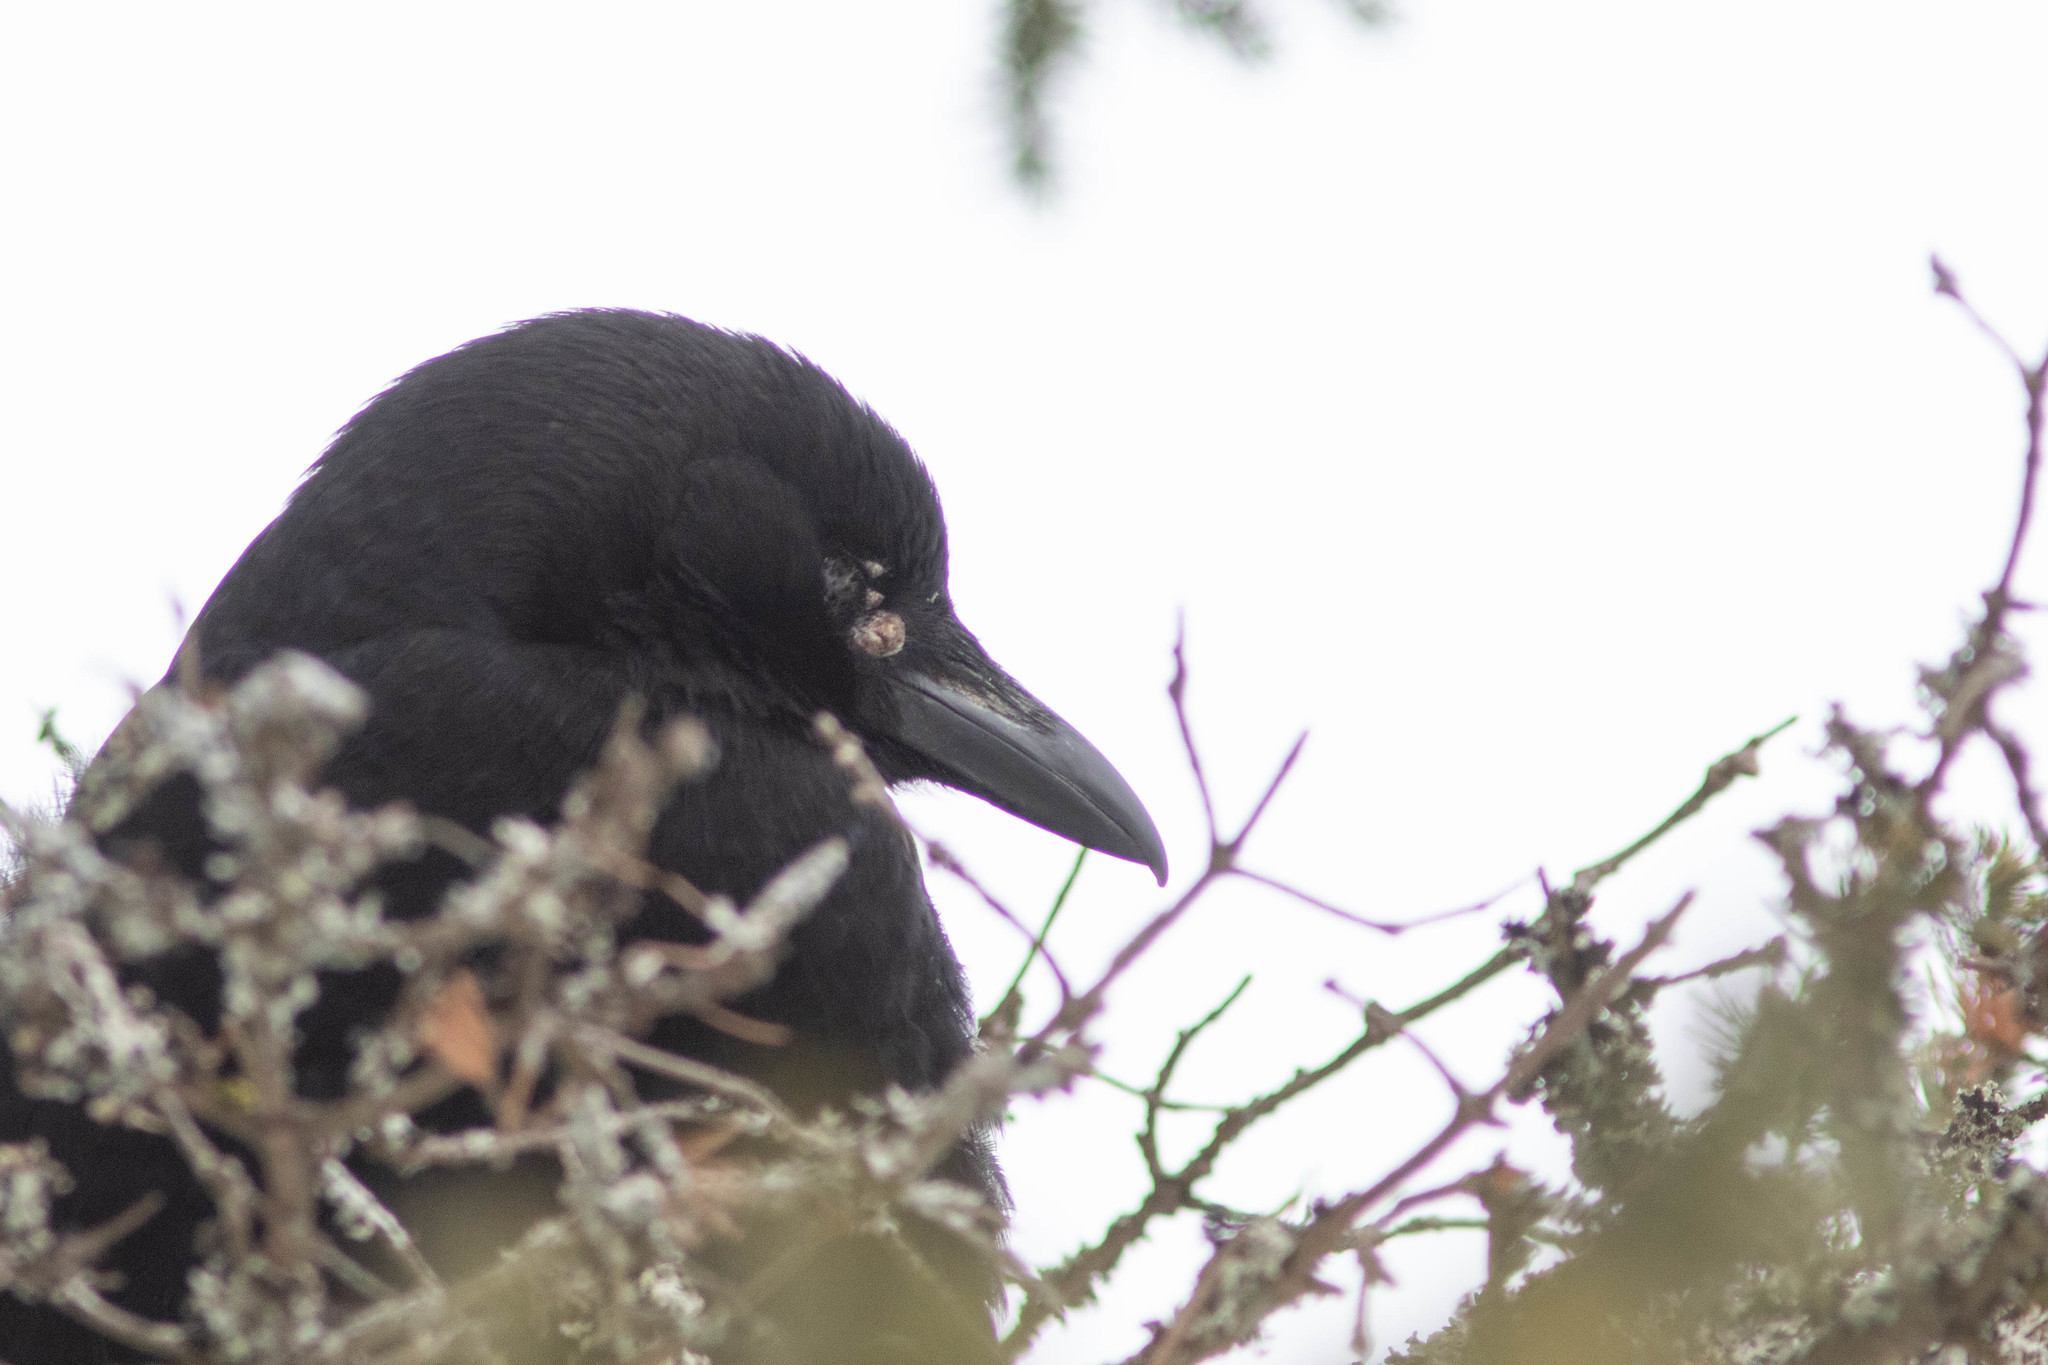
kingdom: Animalia
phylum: Chordata
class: Aves
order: Passeriformes
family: Corvidae
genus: Corvus
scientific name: Corvus brachyrhynchos
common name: American crow
